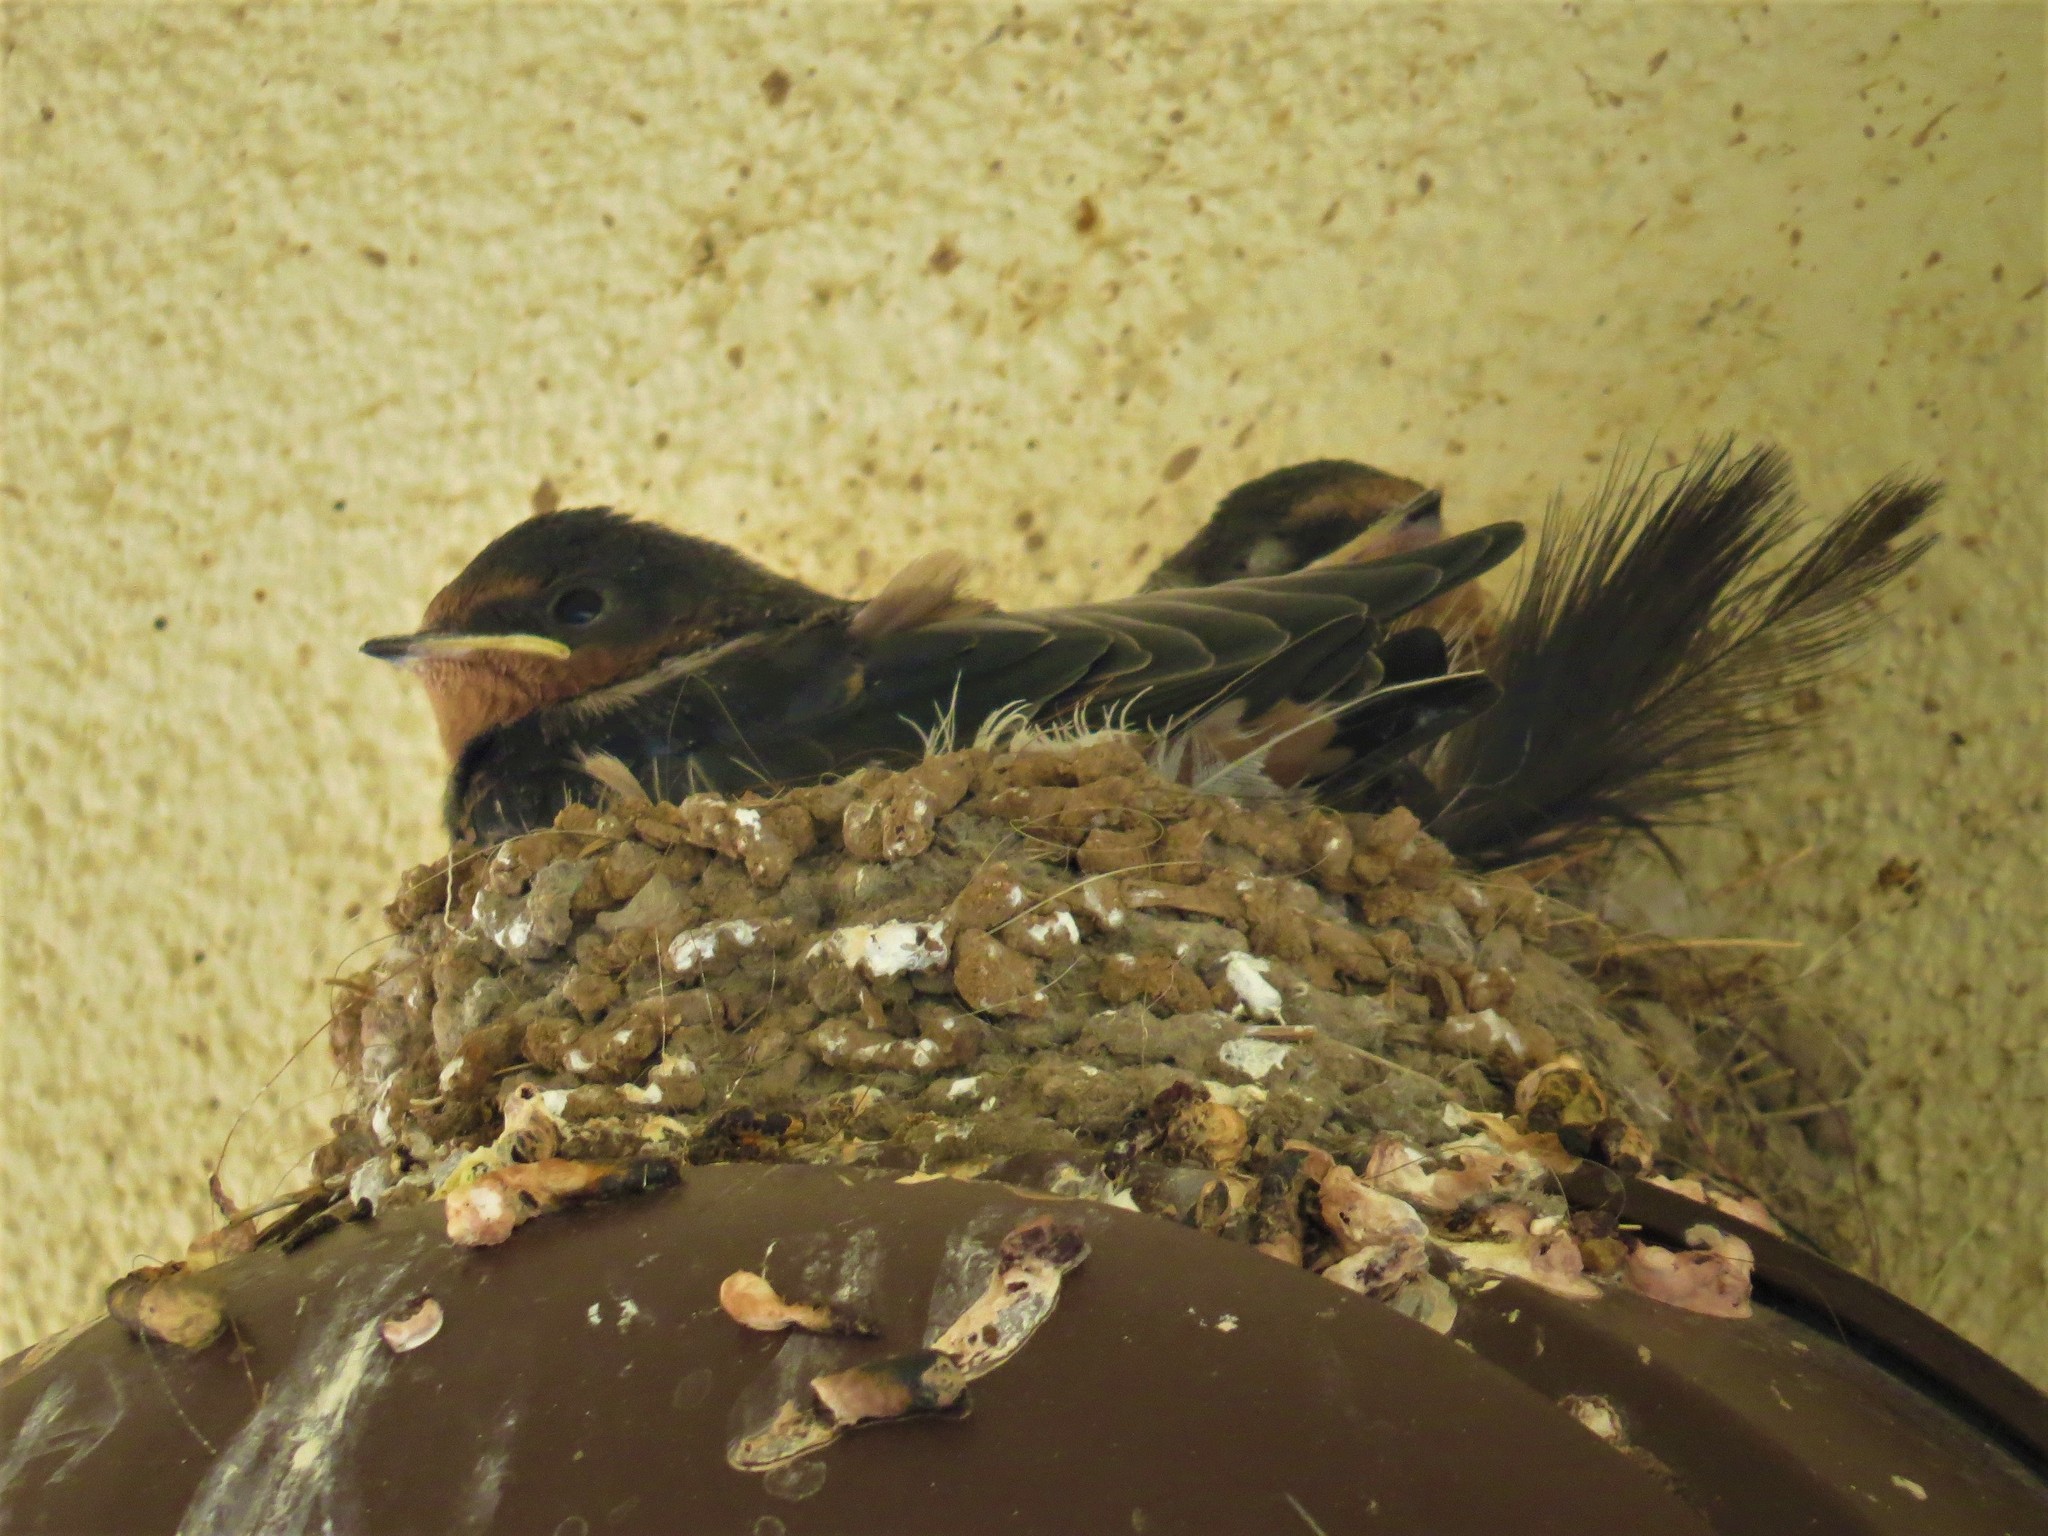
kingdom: Animalia
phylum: Chordata
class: Aves
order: Passeriformes
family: Hirundinidae
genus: Hirundo
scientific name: Hirundo rustica
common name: Barn swallow
